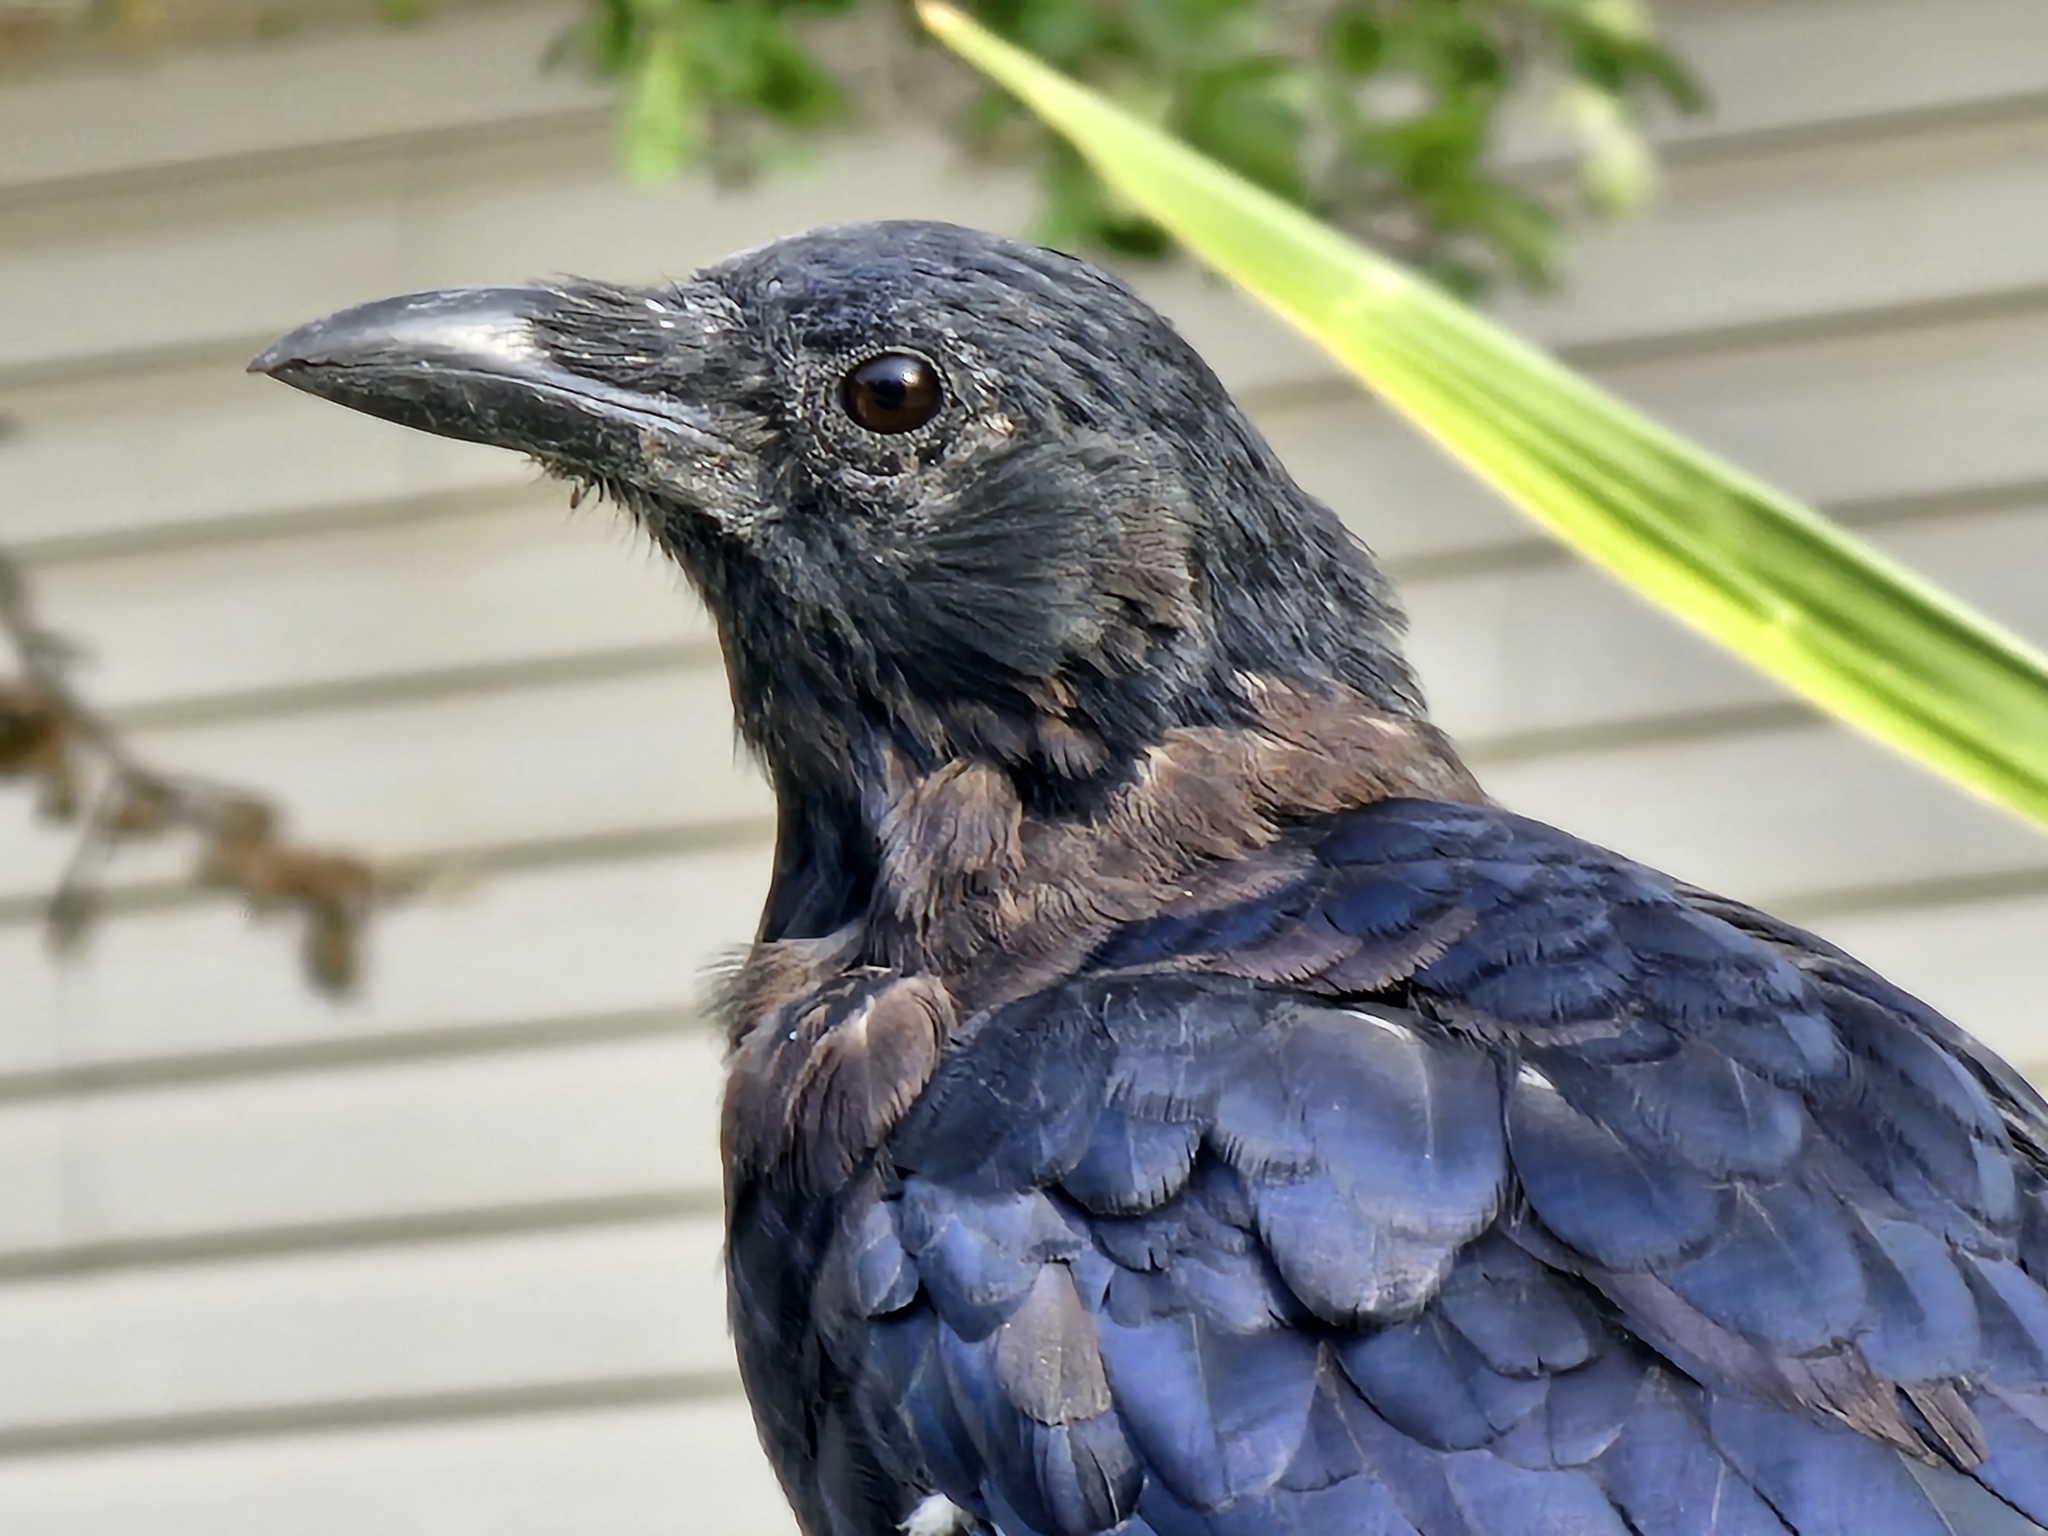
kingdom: Animalia
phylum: Chordata
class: Aves
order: Passeriformes
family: Corvidae
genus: Corvus
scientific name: Corvus brachyrhynchos
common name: American crow
